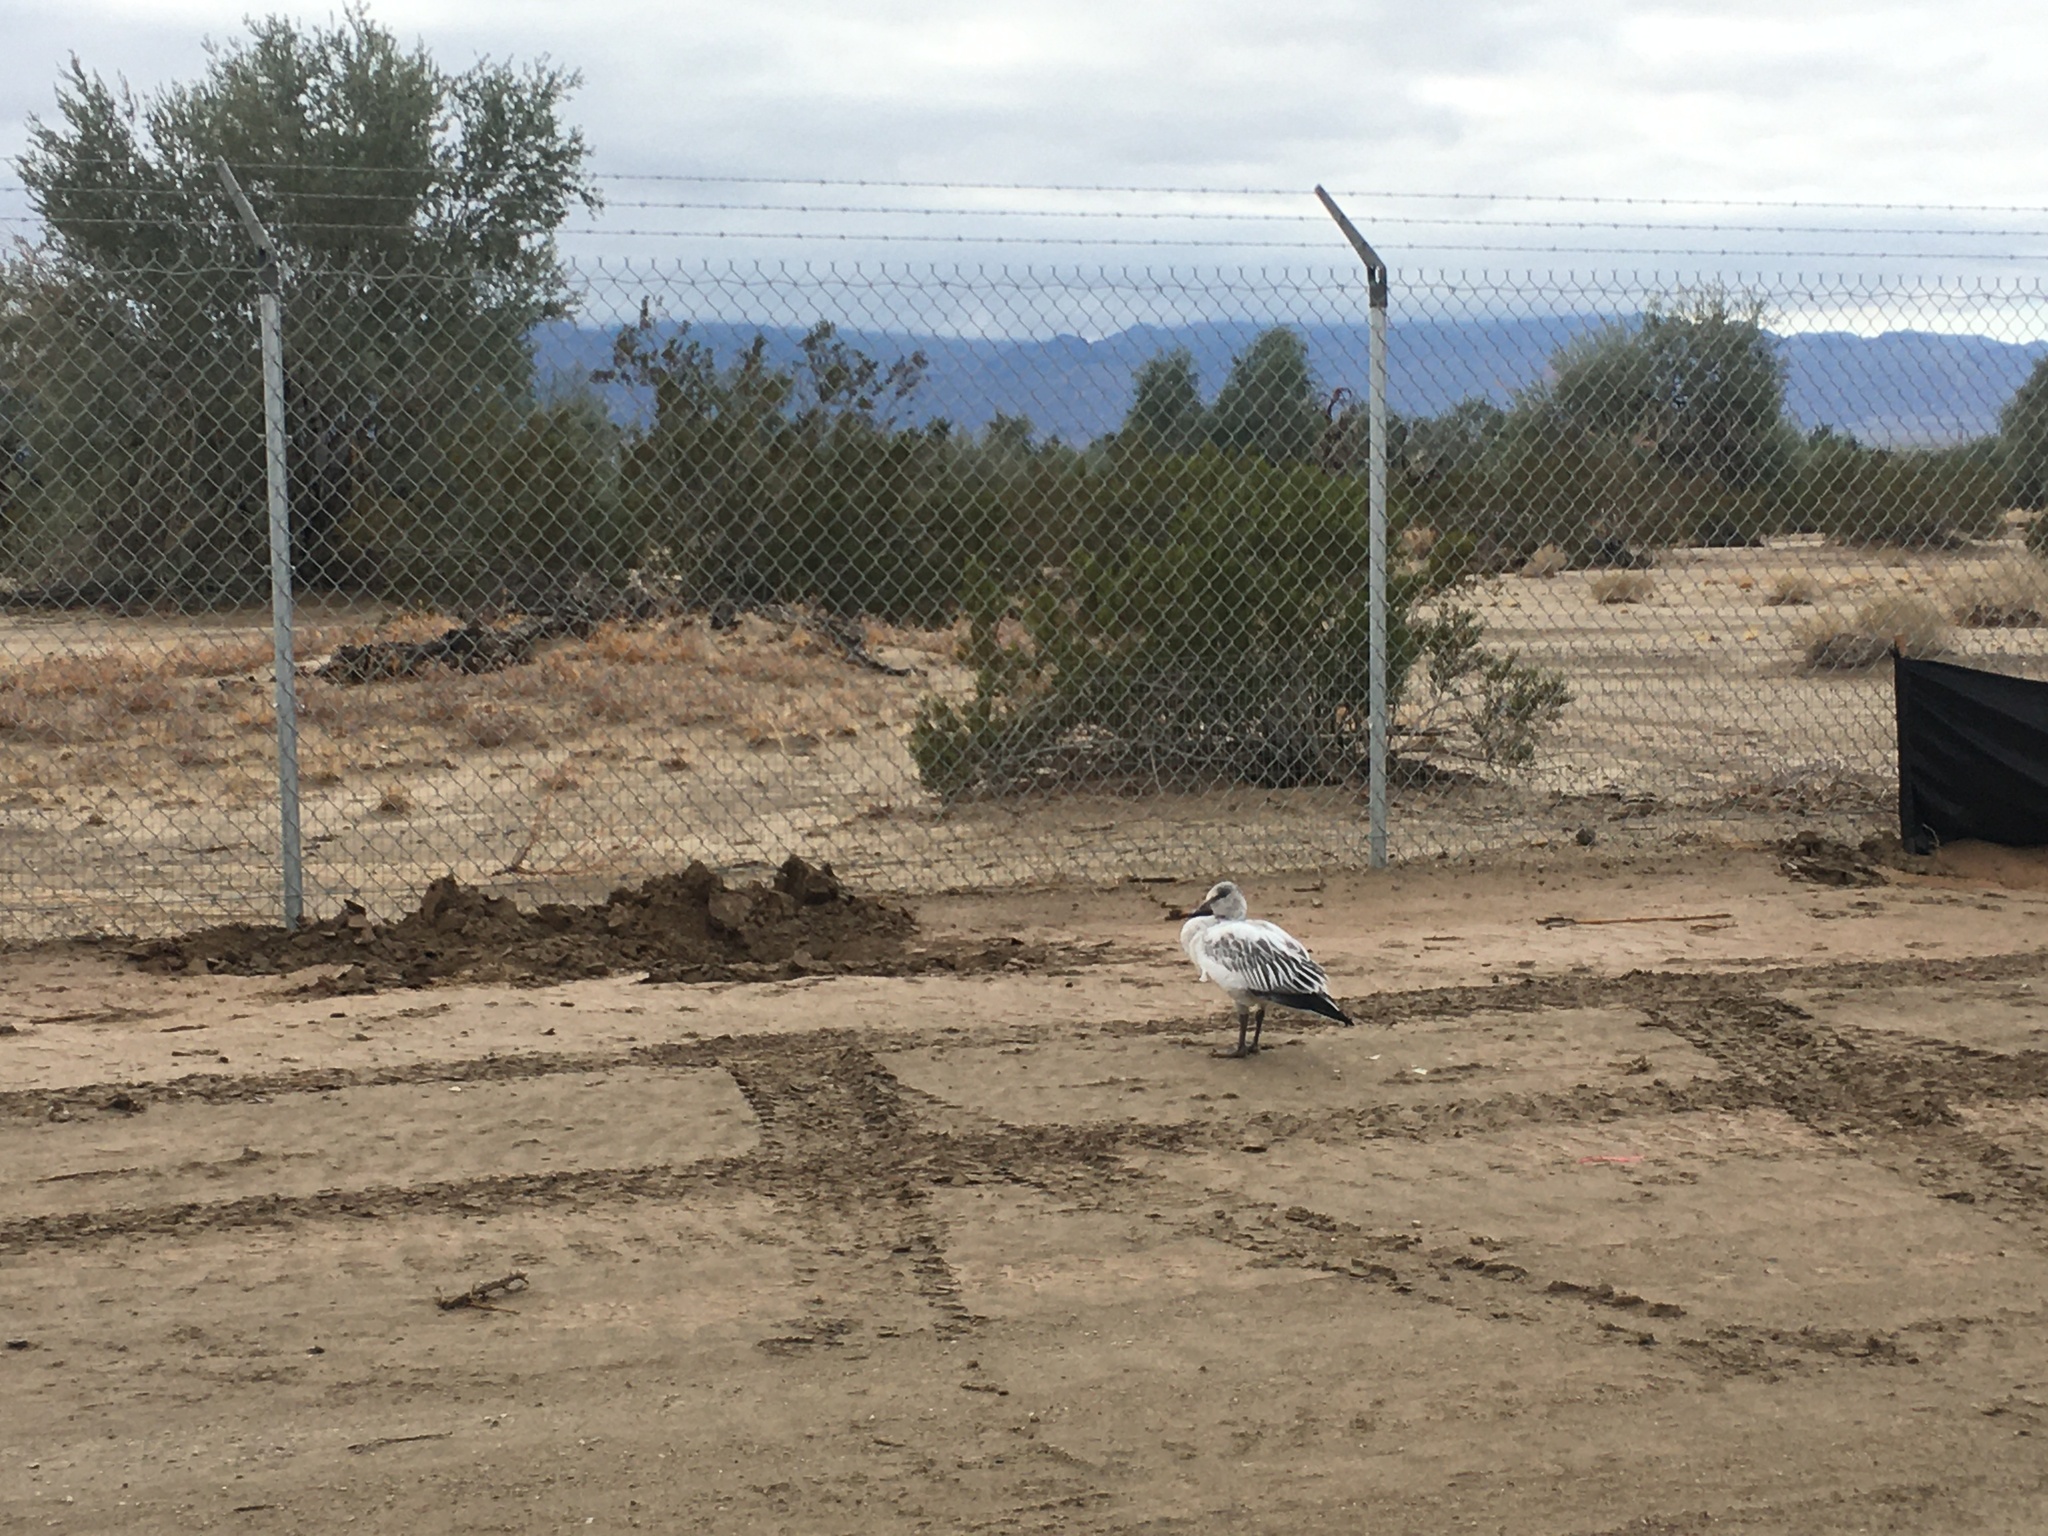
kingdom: Animalia
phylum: Chordata
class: Aves
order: Anseriformes
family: Anatidae
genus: Anser
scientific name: Anser caerulescens
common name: Snow goose
